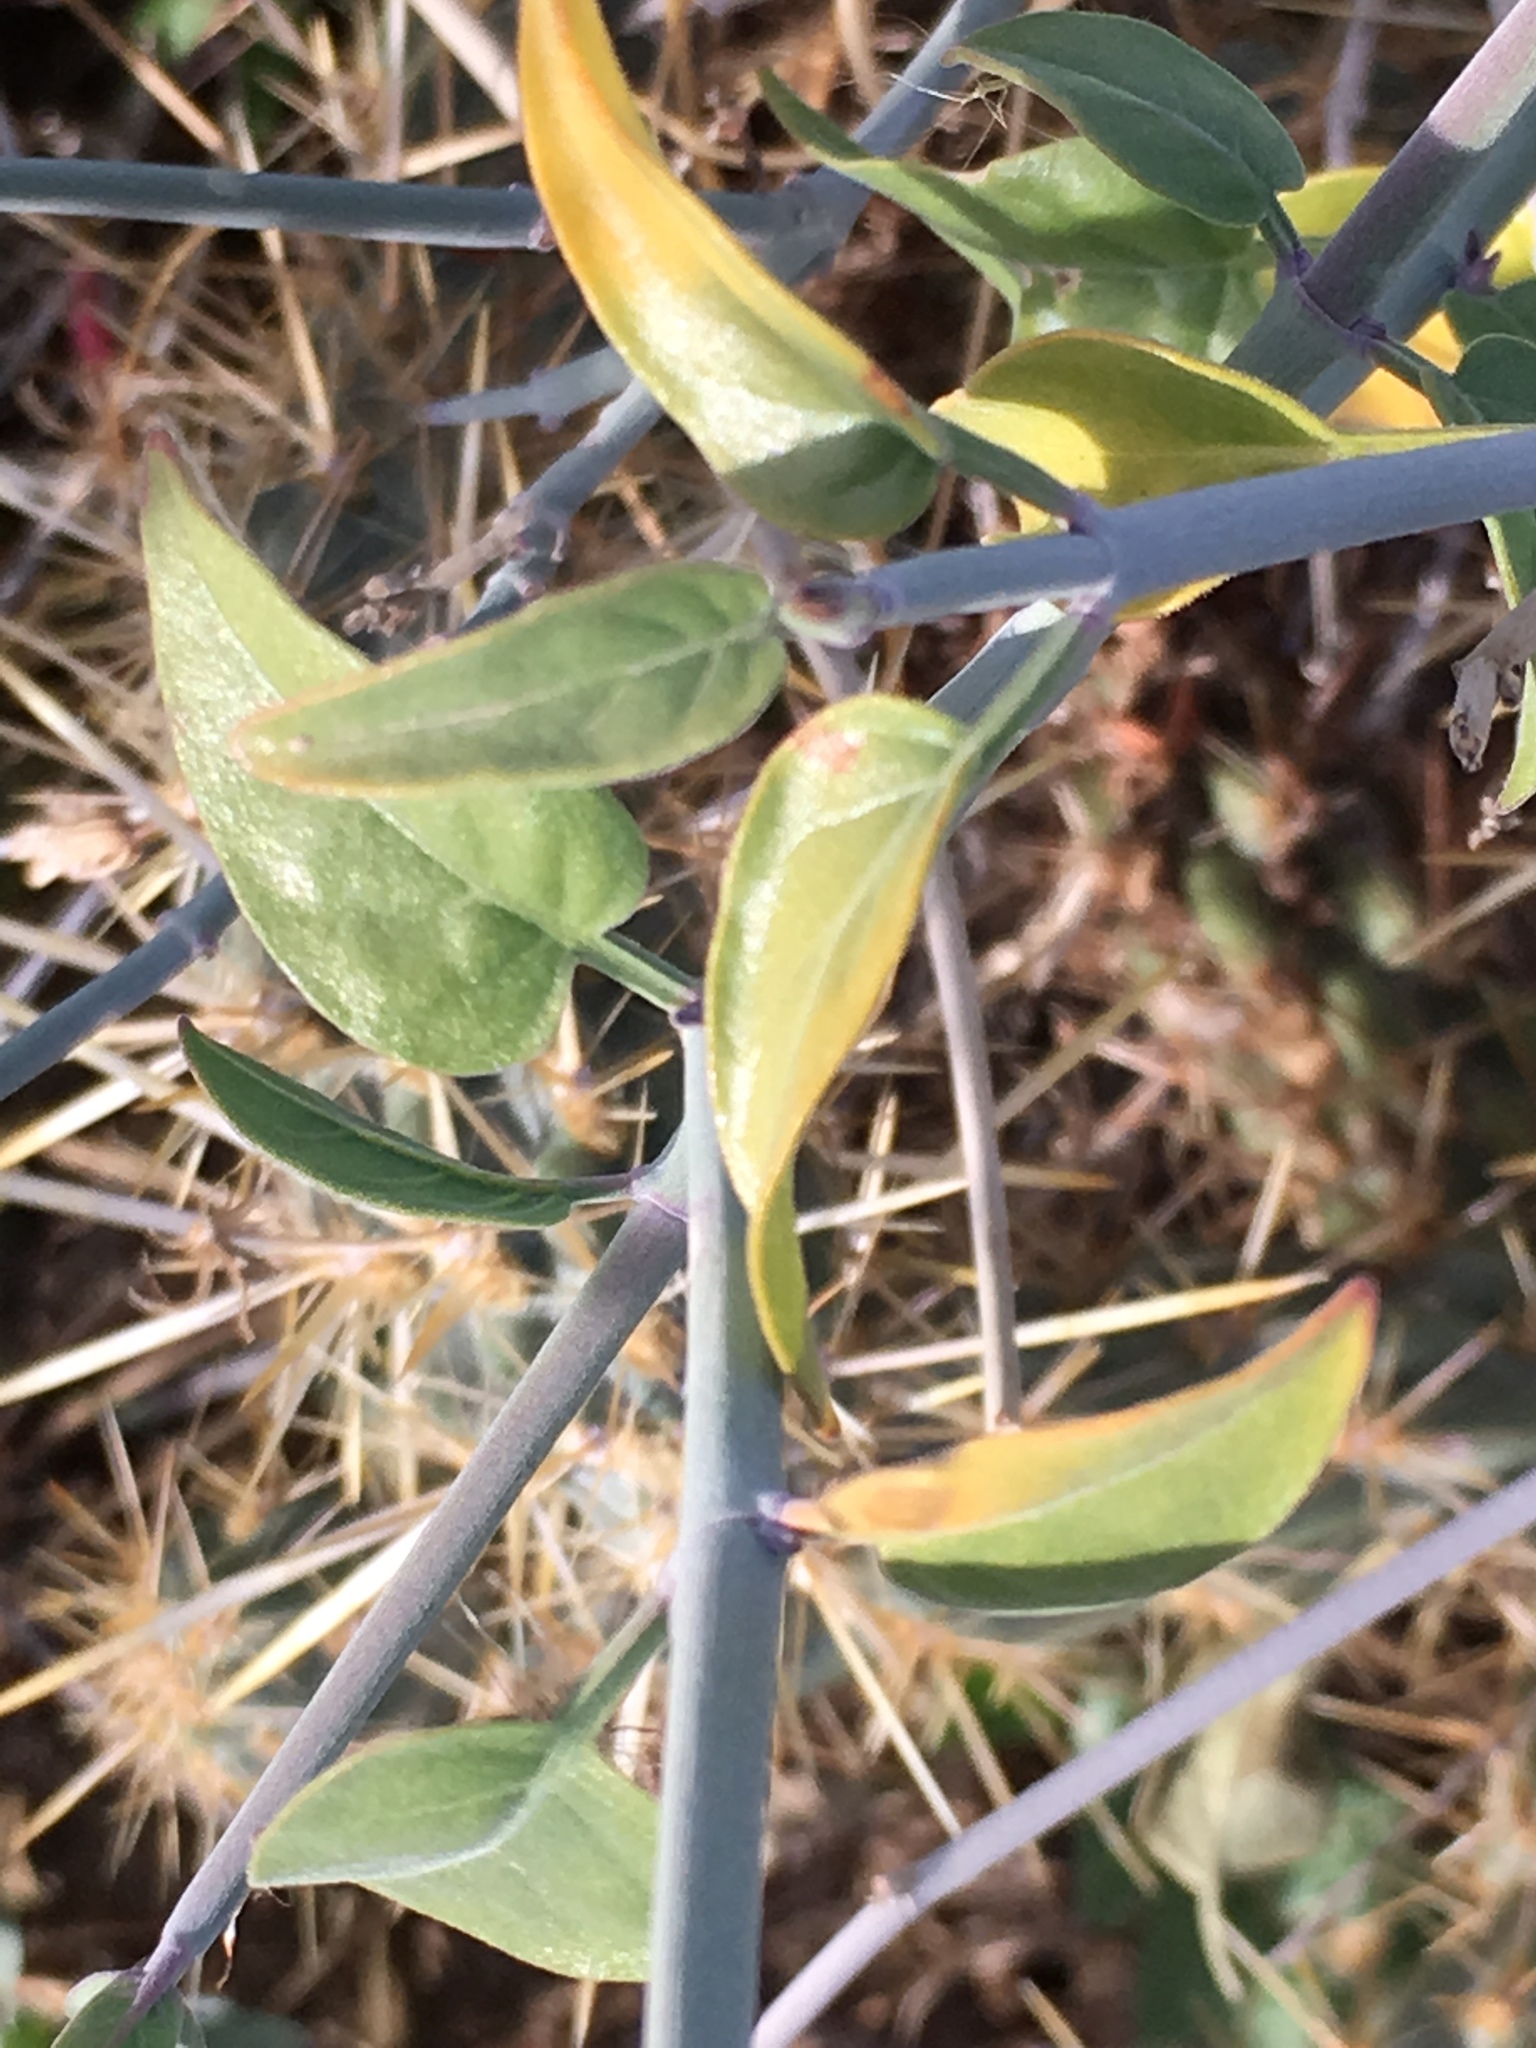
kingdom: Plantae
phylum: Tracheophyta
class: Magnoliopsida
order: Lamiales
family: Acanthaceae
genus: Justicia
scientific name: Justicia californica
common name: Chuparosa-honeysuckle
